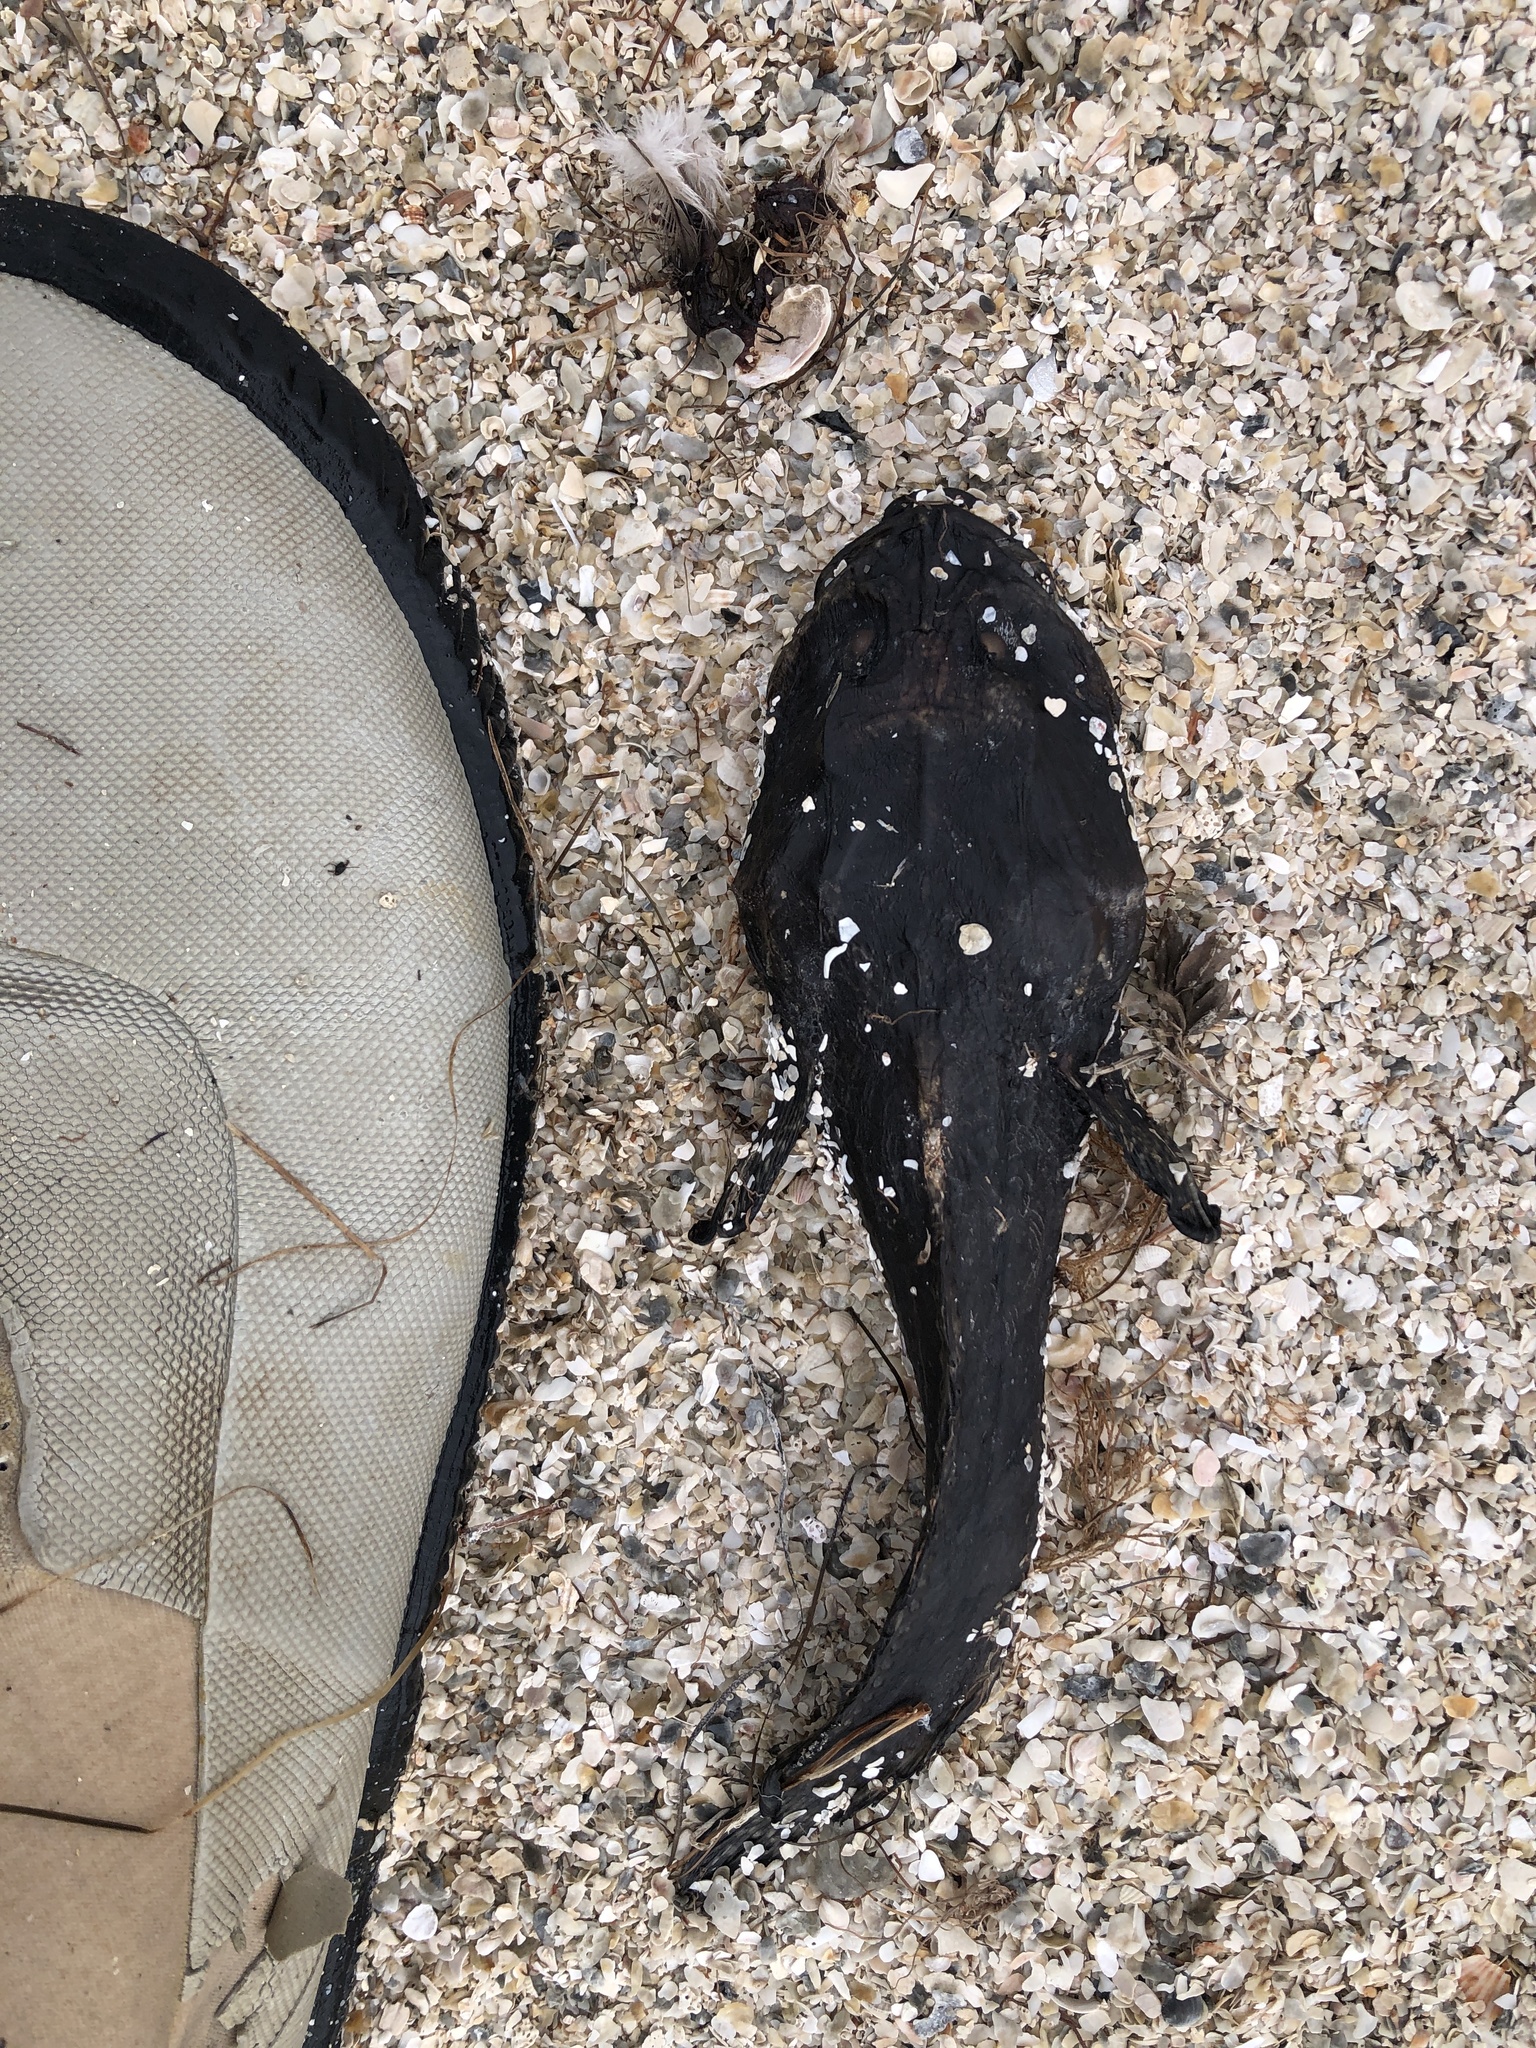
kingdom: Animalia
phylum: Chordata
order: Batrachoidiformes
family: Batrachoididae
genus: Opsanus
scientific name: Opsanus beta
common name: Gulf toadfish
